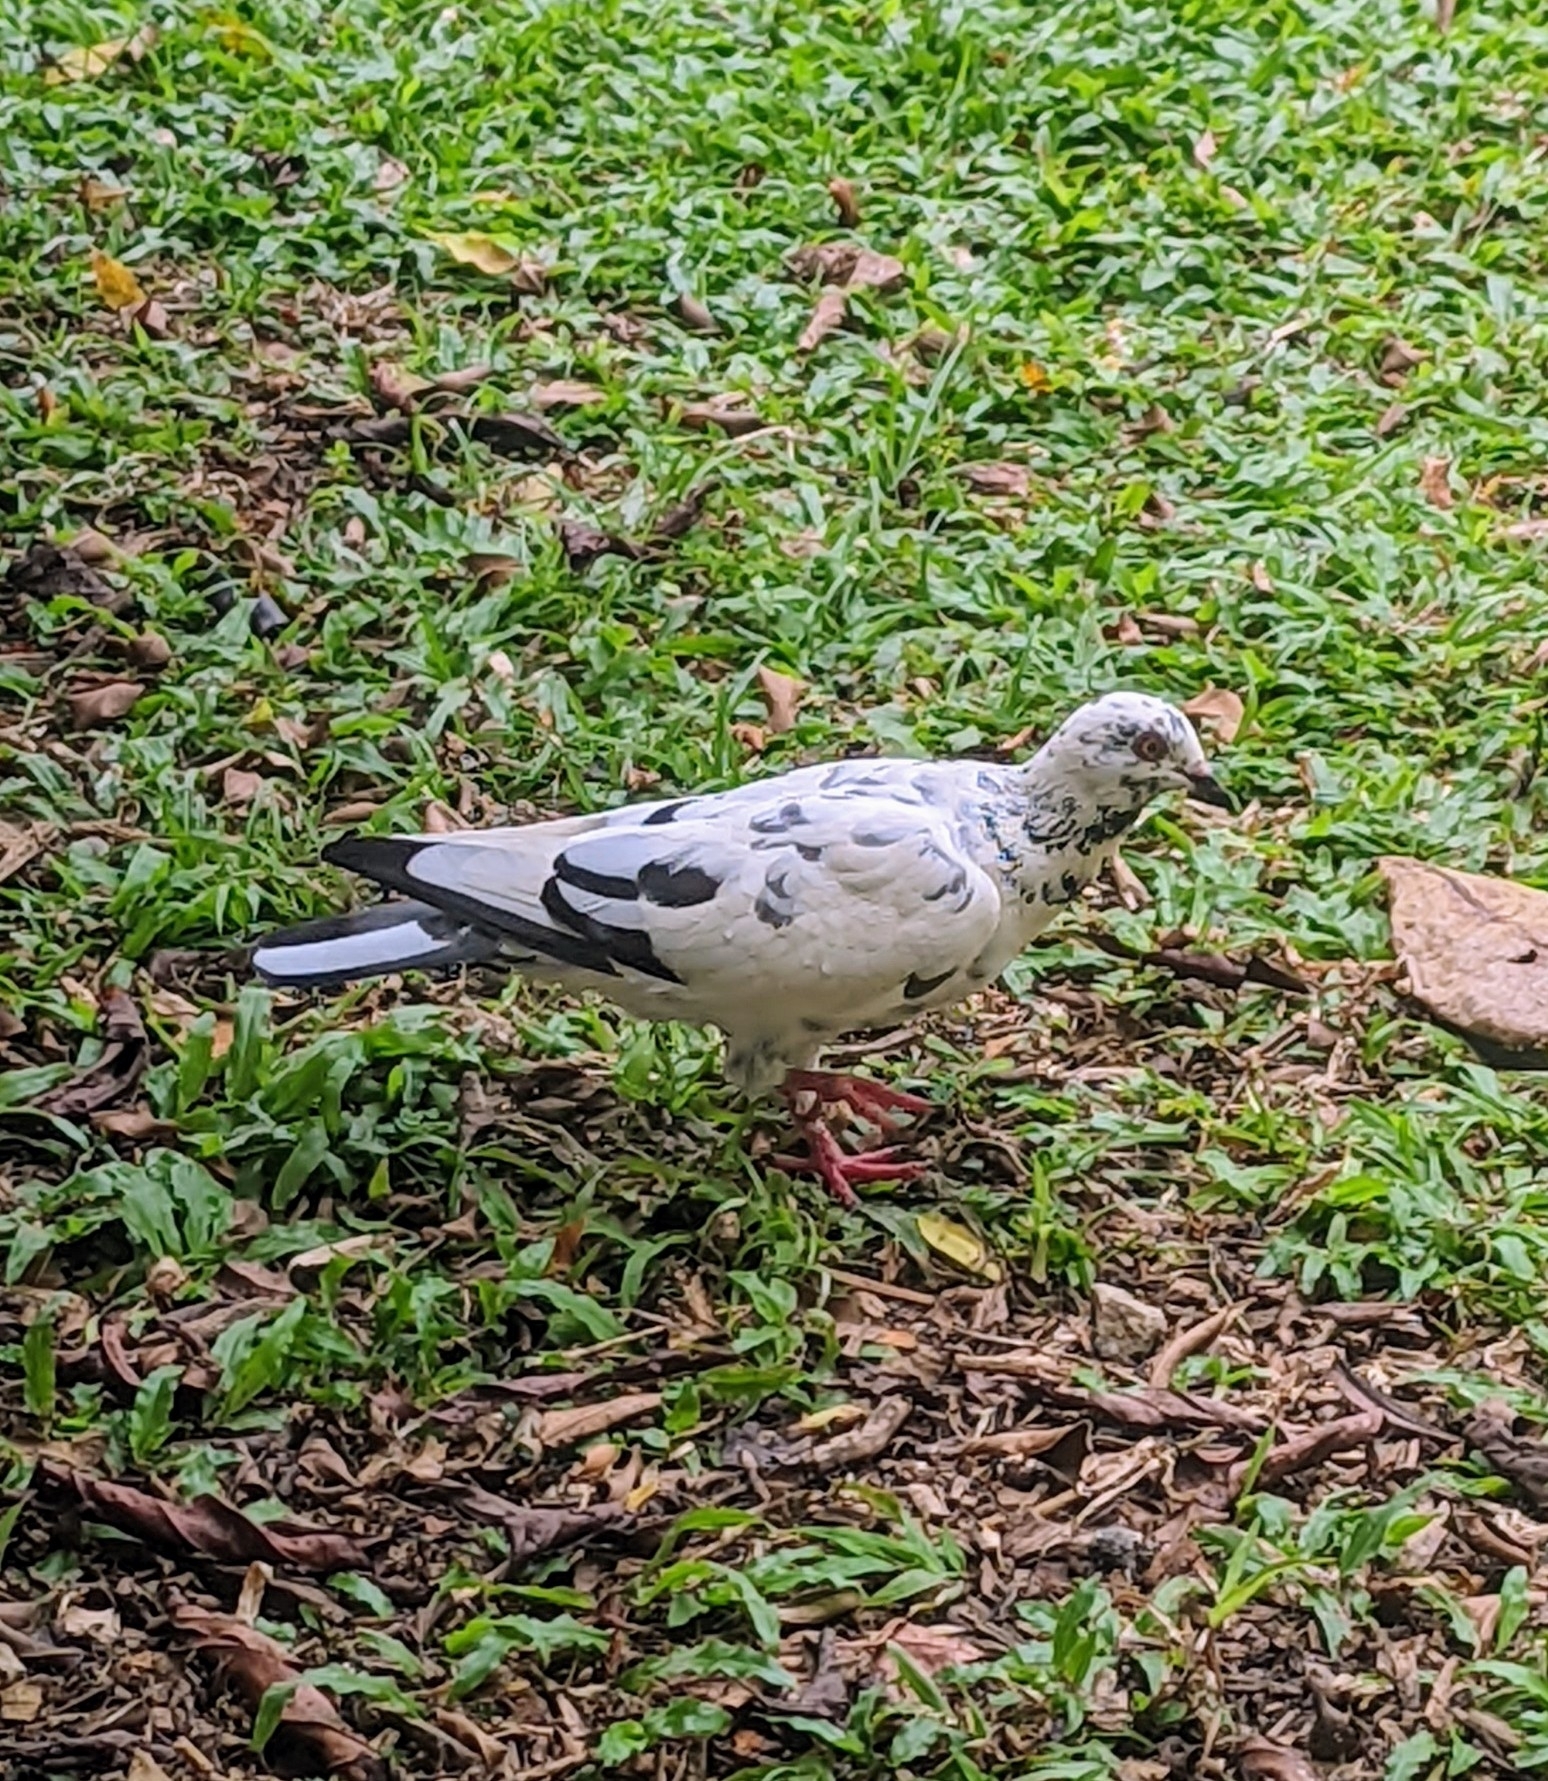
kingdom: Animalia
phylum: Chordata
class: Aves
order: Columbiformes
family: Columbidae
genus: Columba
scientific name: Columba livia
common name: Rock pigeon
